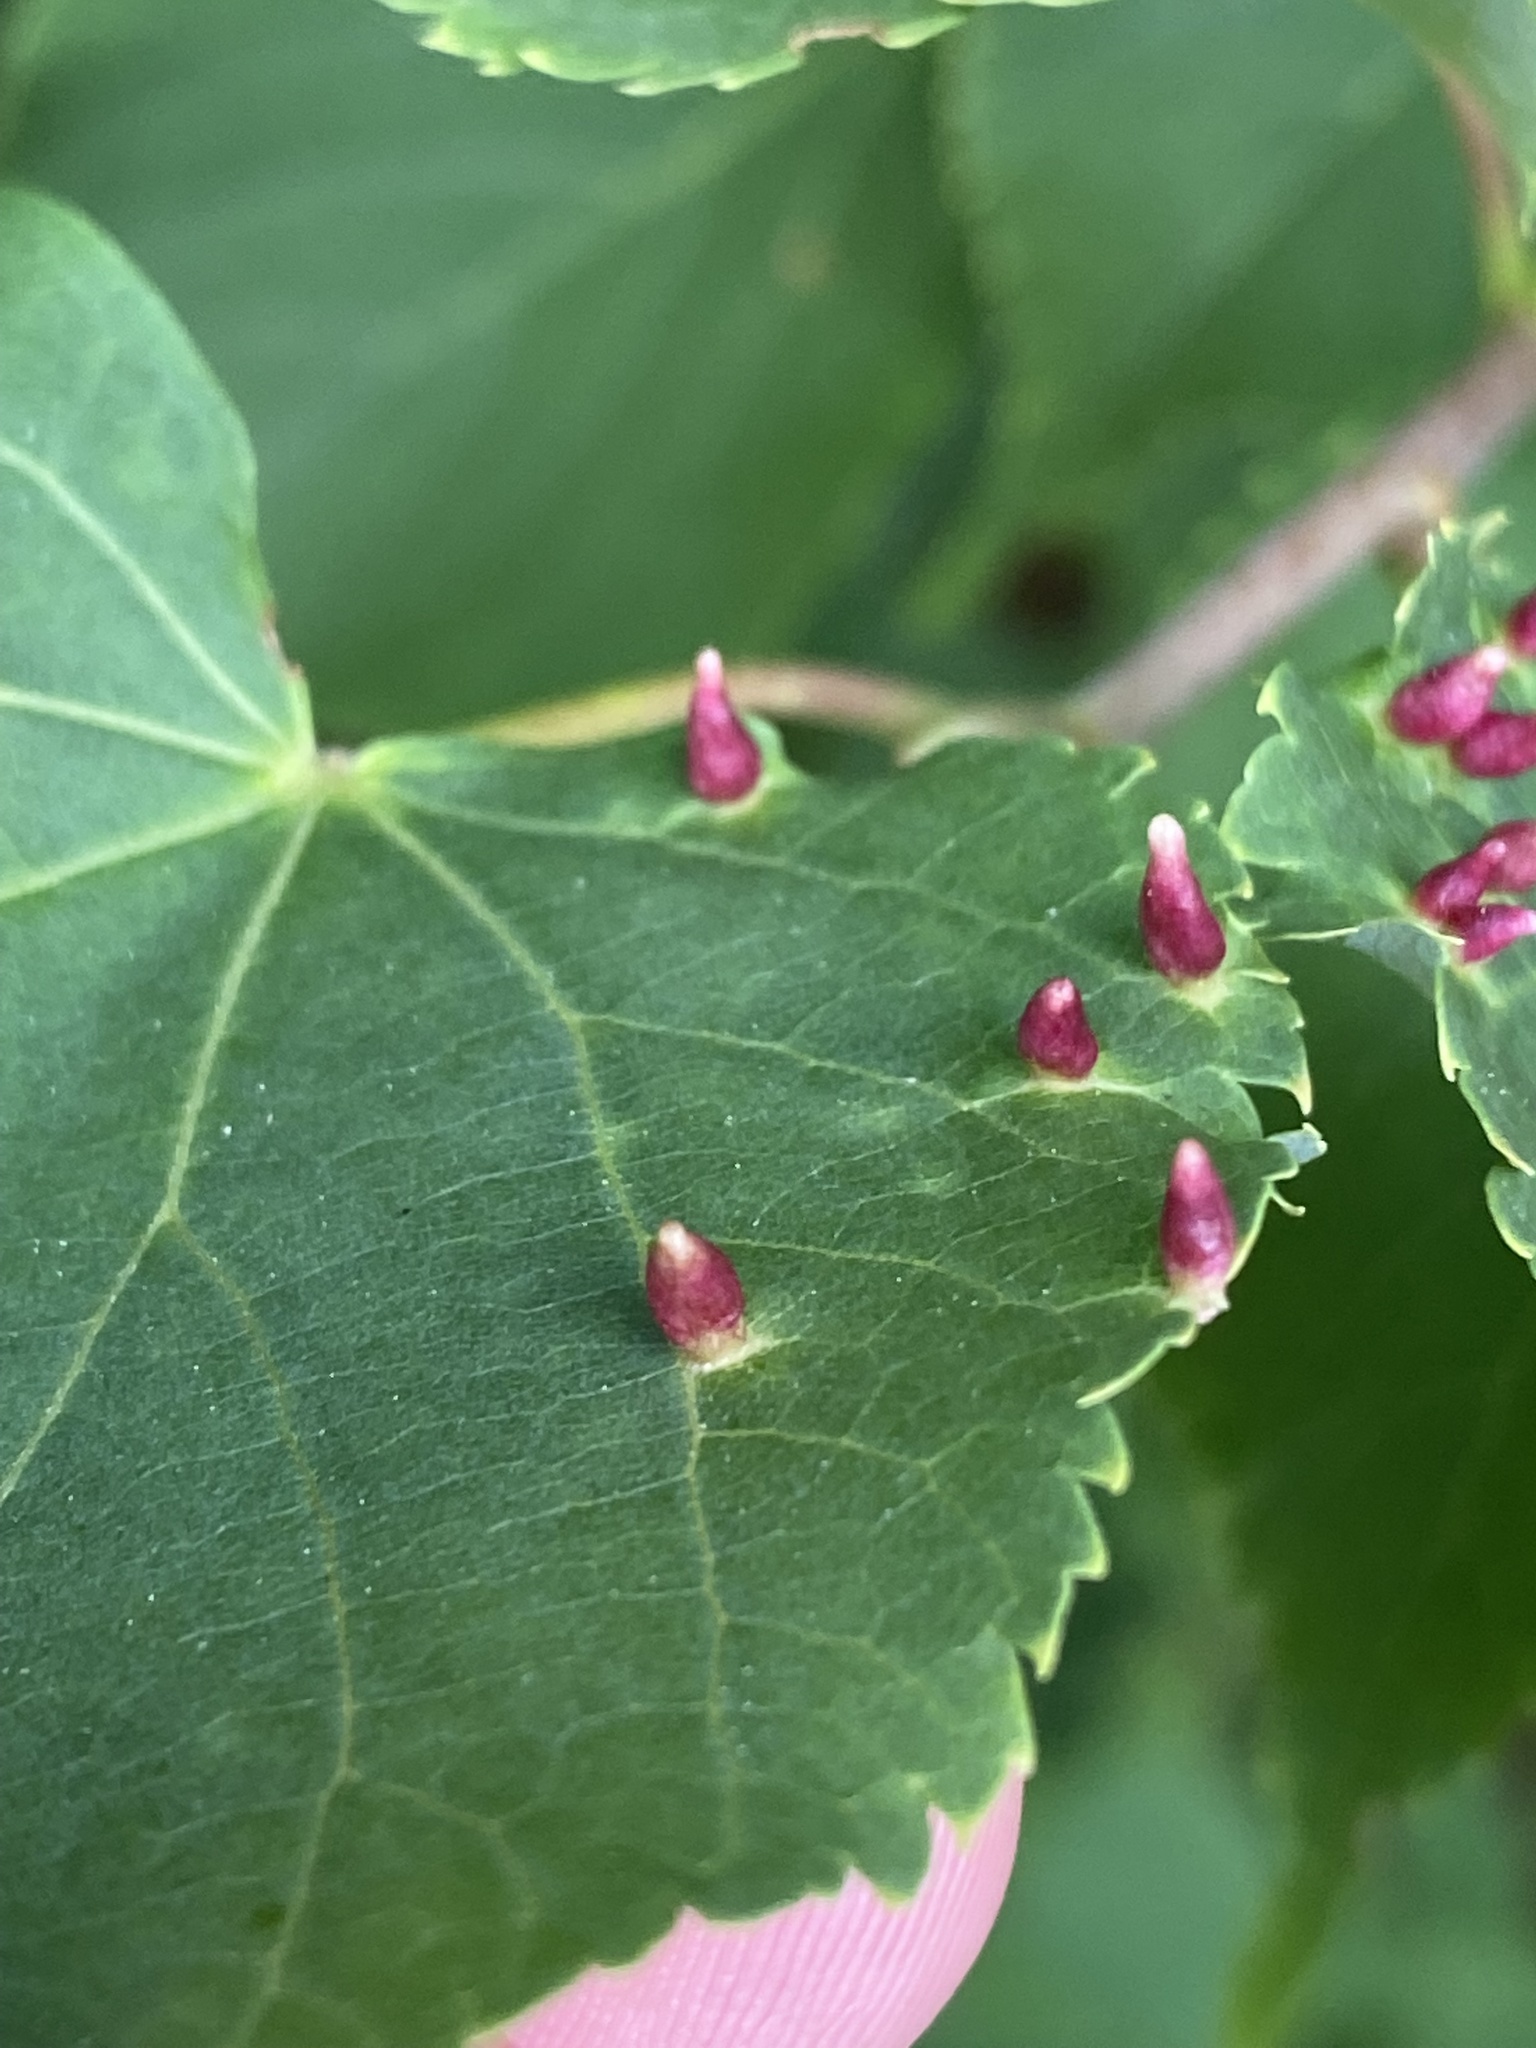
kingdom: Animalia
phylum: Arthropoda
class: Arachnida
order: Trombidiformes
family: Eriophyidae
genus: Eriophyes
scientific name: Eriophyes tiliae
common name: Red nail gall mite
